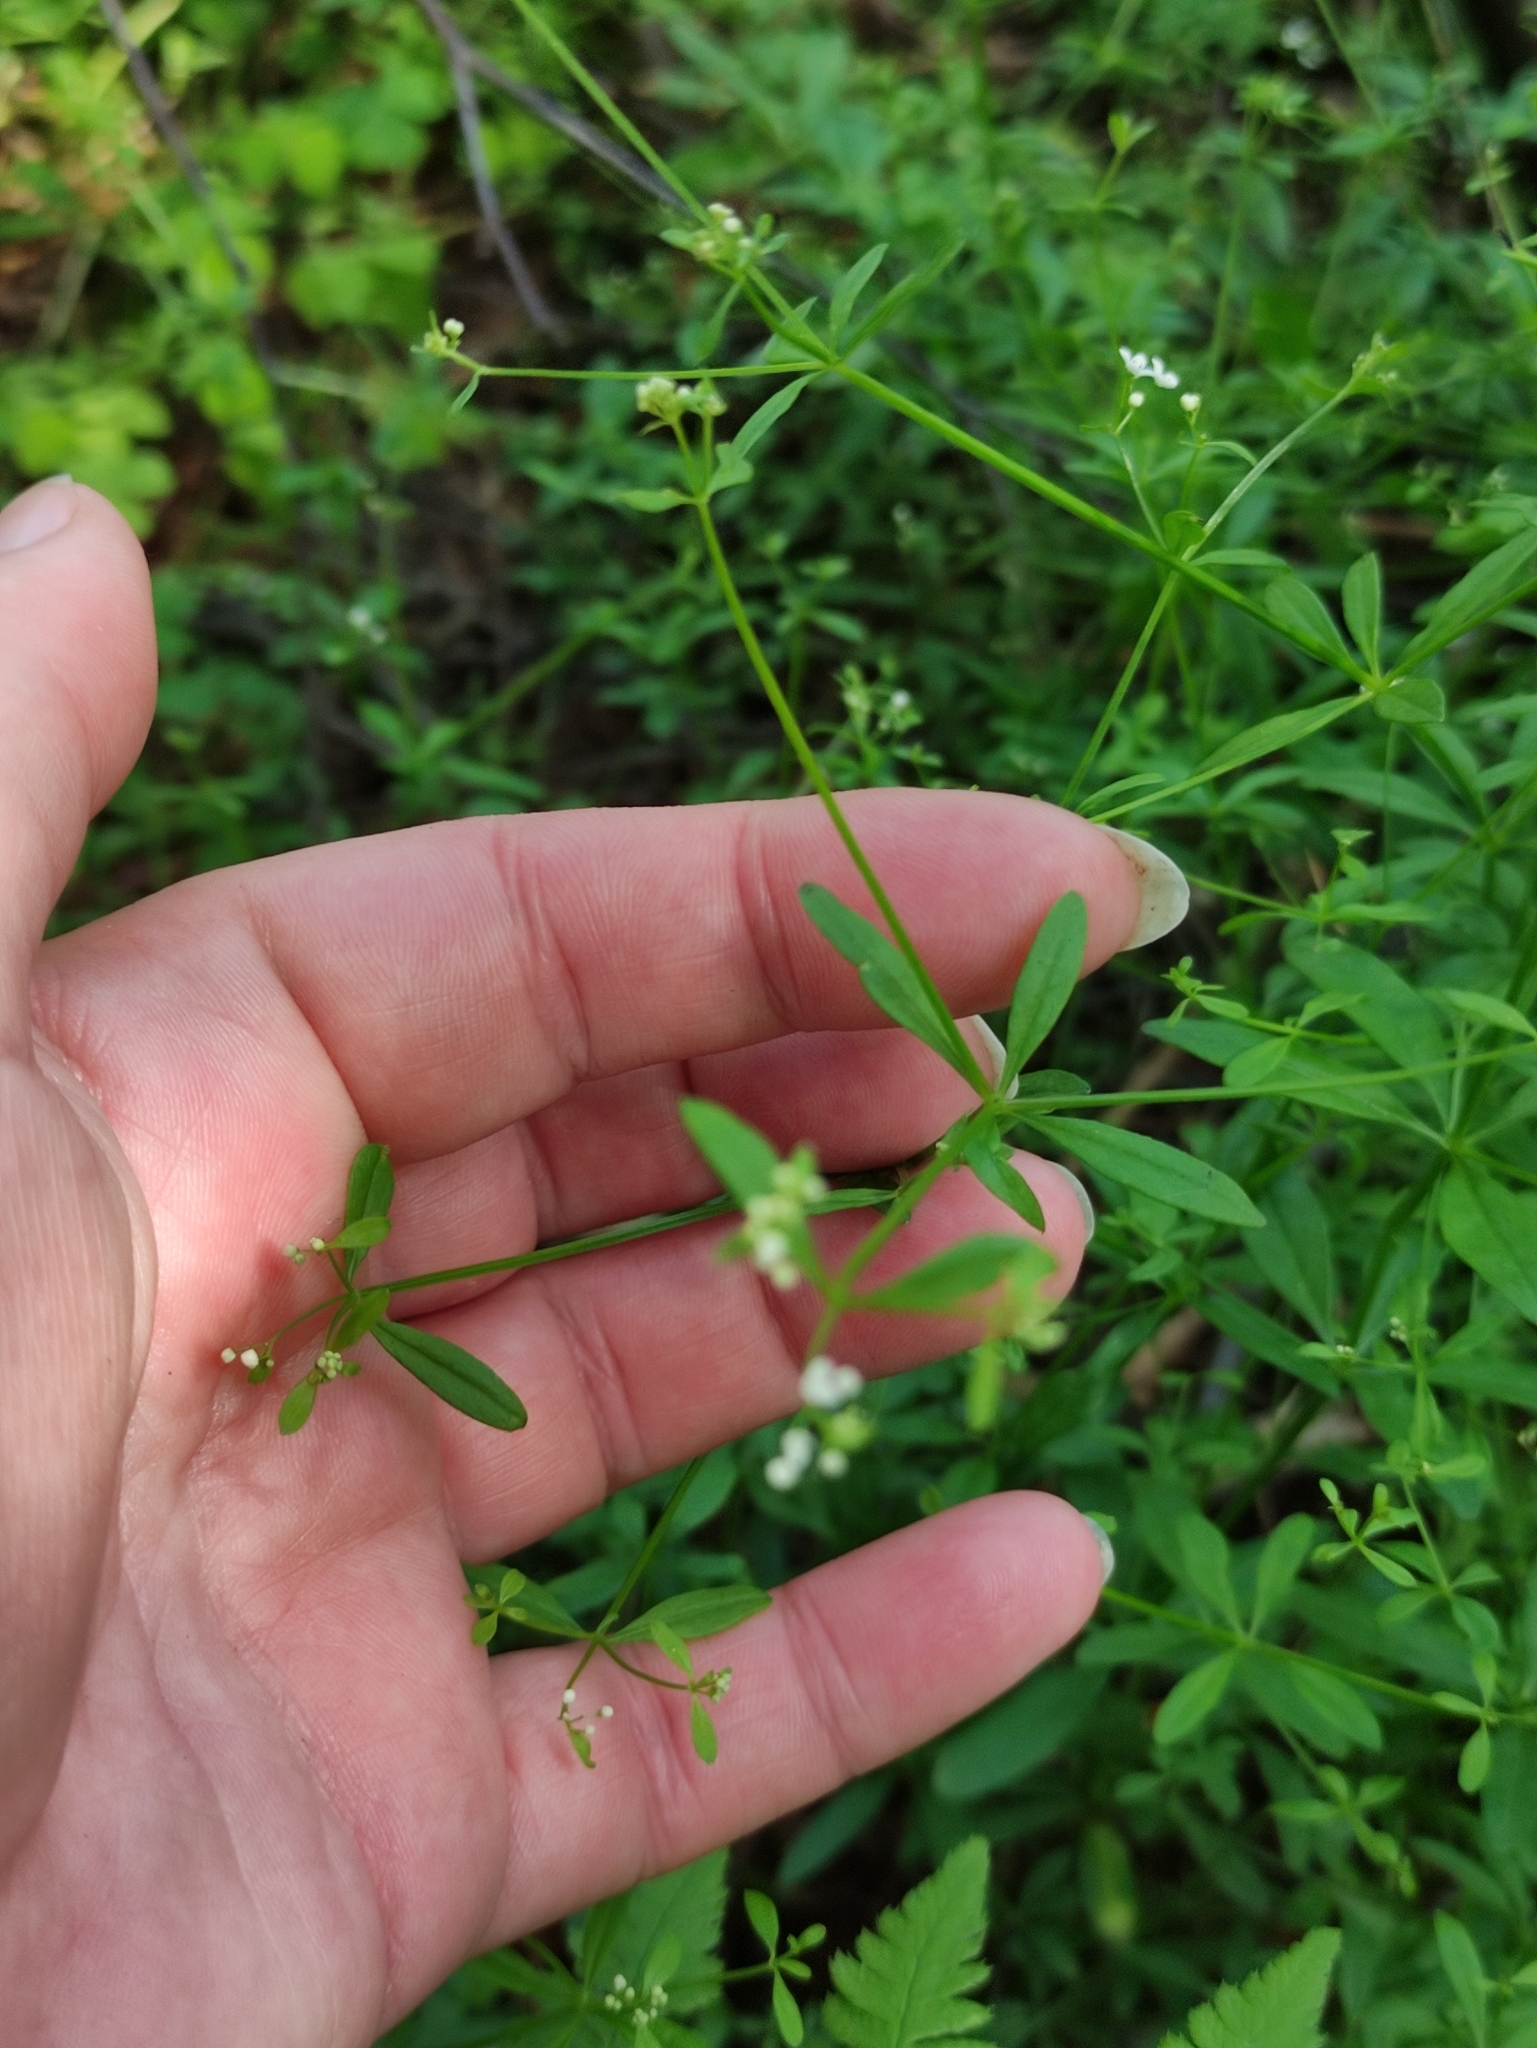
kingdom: Plantae
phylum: Tracheophyta
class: Magnoliopsida
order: Gentianales
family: Rubiaceae
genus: Galium
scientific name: Galium palustre
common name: Common marsh-bedstraw
